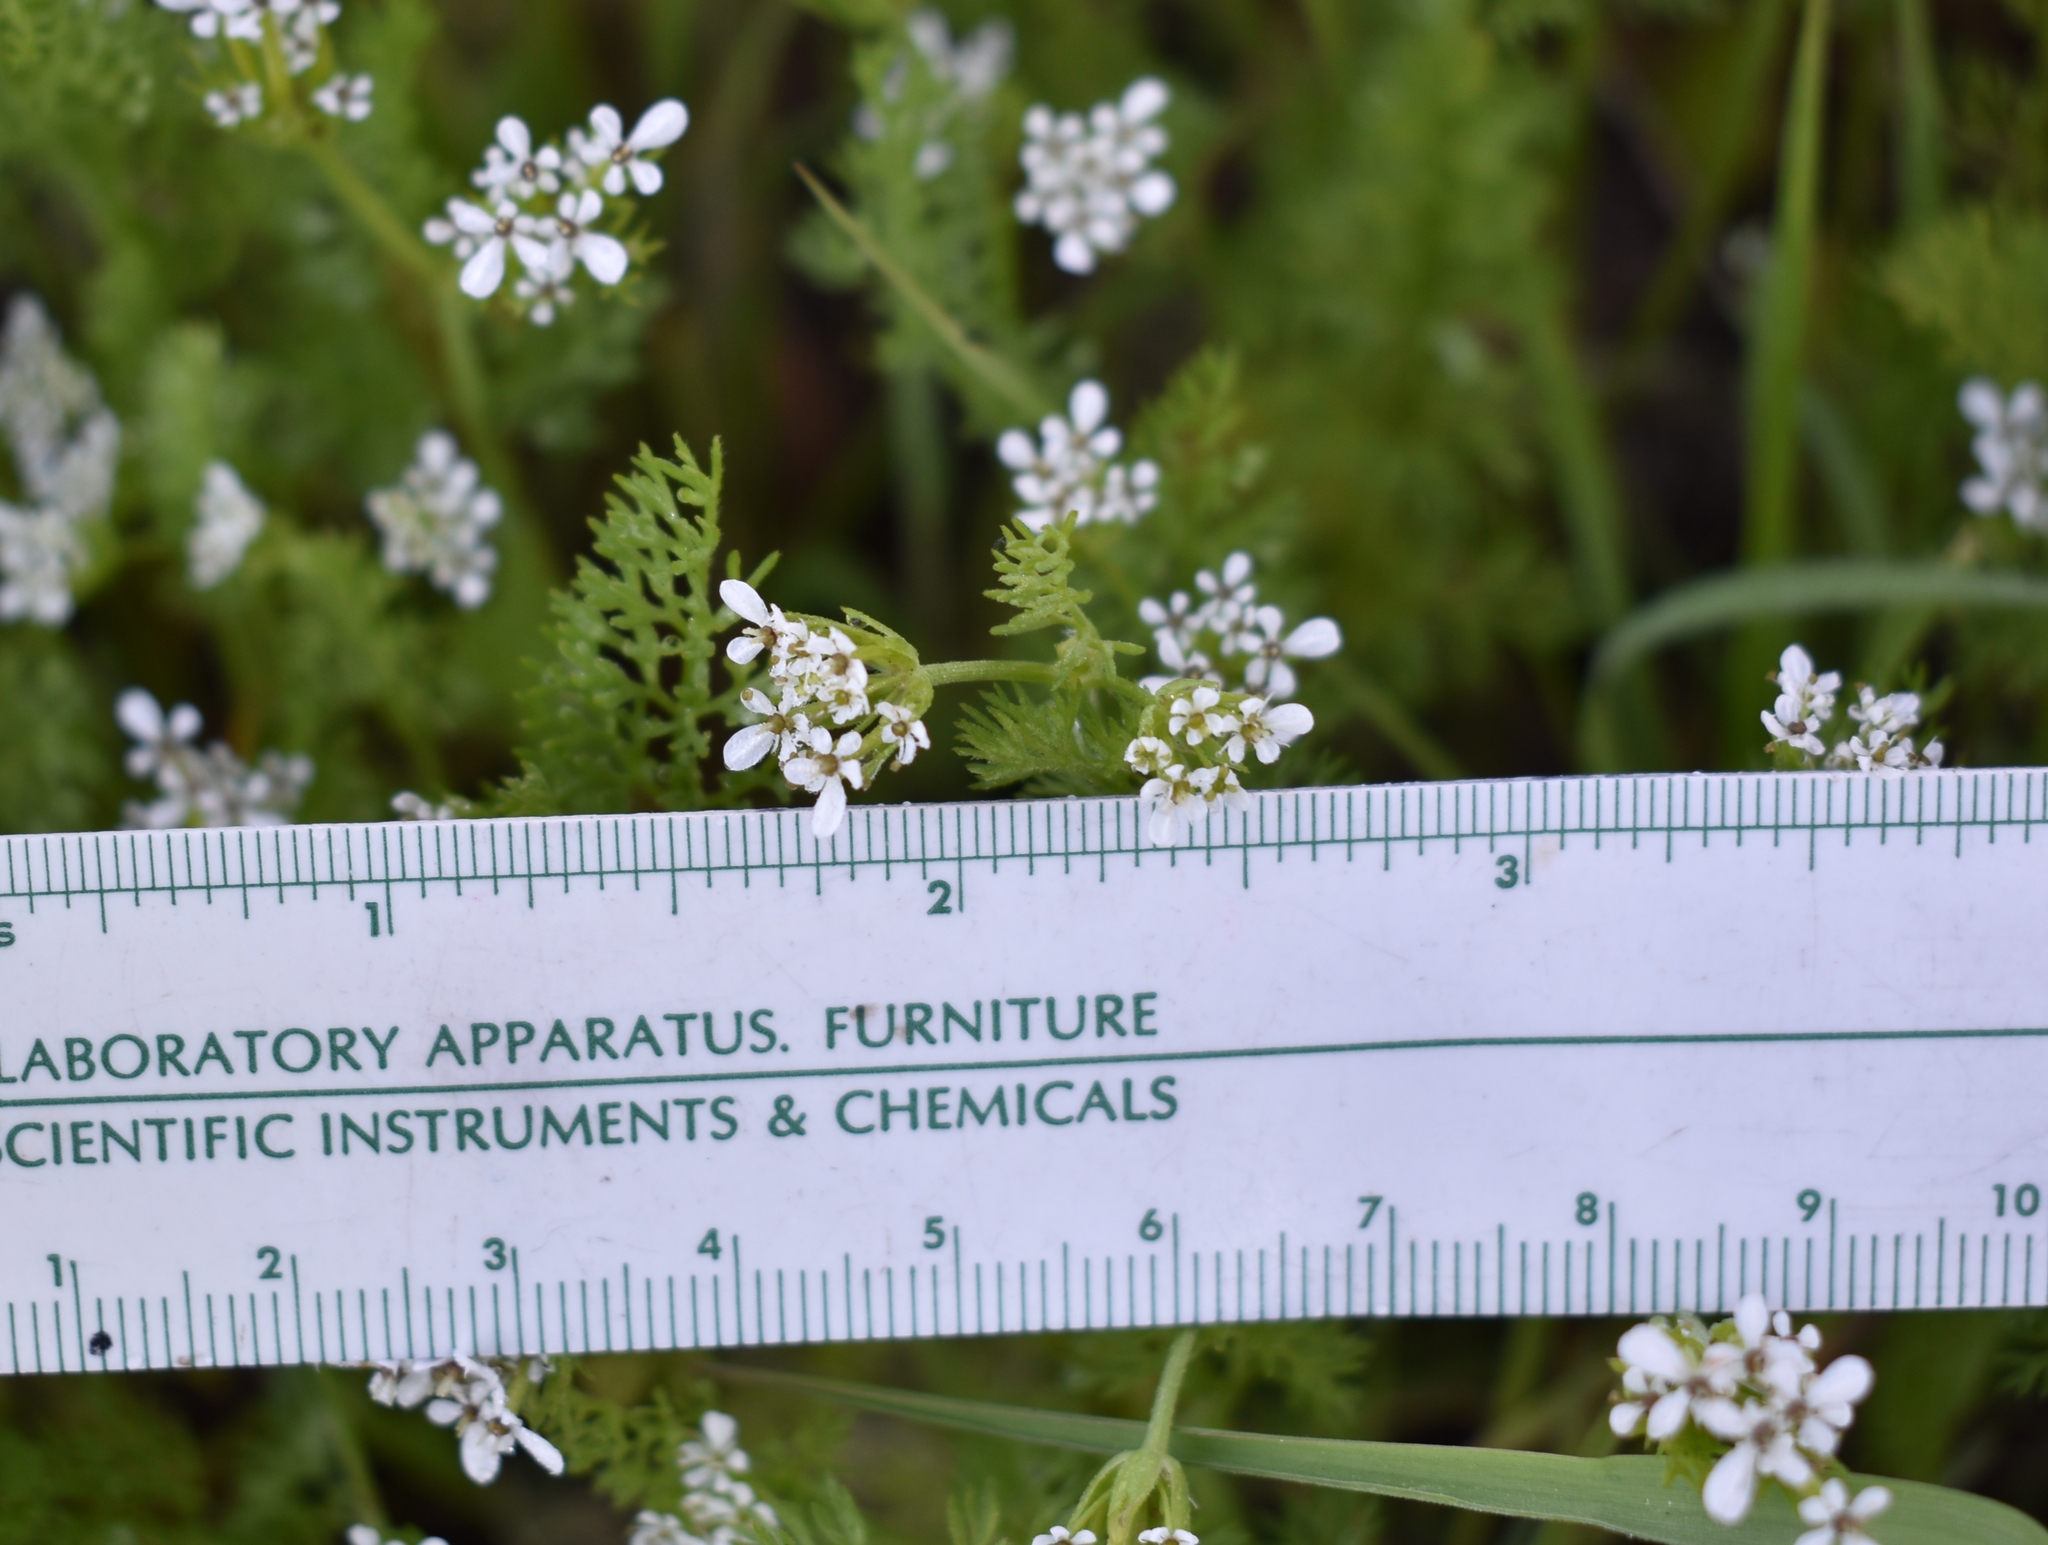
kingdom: Plantae
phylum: Tracheophyta
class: Magnoliopsida
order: Apiales
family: Apiaceae
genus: Scandix
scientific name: Scandix pecten-veneris
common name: Shepherd's-needle
